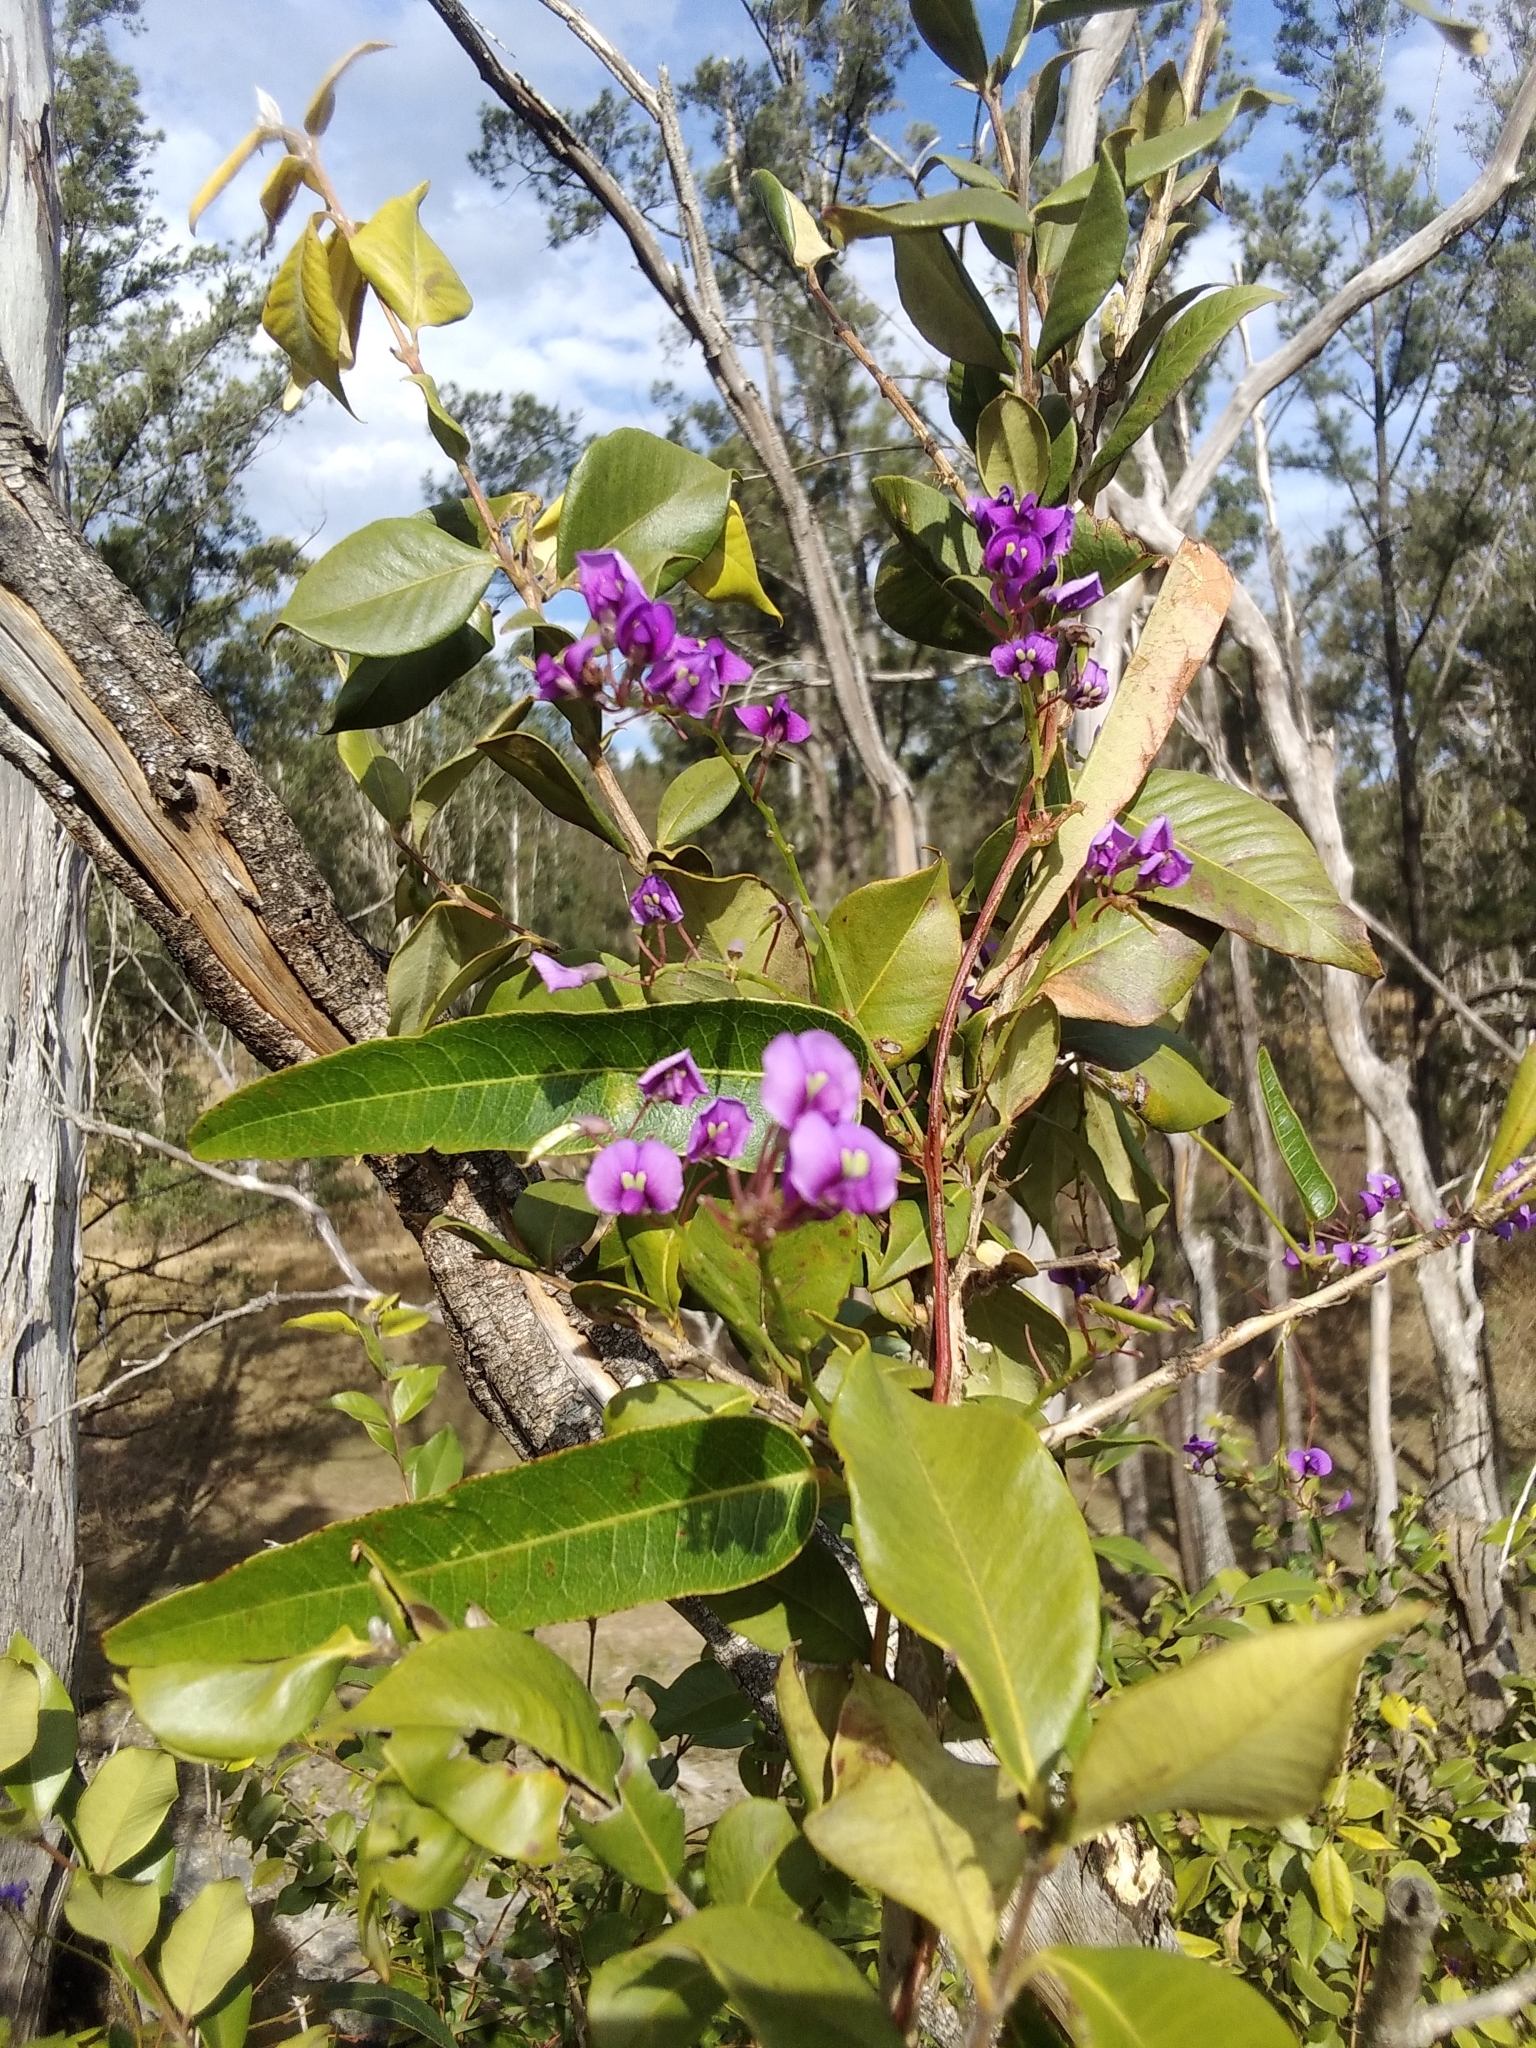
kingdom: Plantae
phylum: Tracheophyta
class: Magnoliopsida
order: Fabales
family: Fabaceae
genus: Hardenbergia
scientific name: Hardenbergia violacea
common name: Coral-pea
